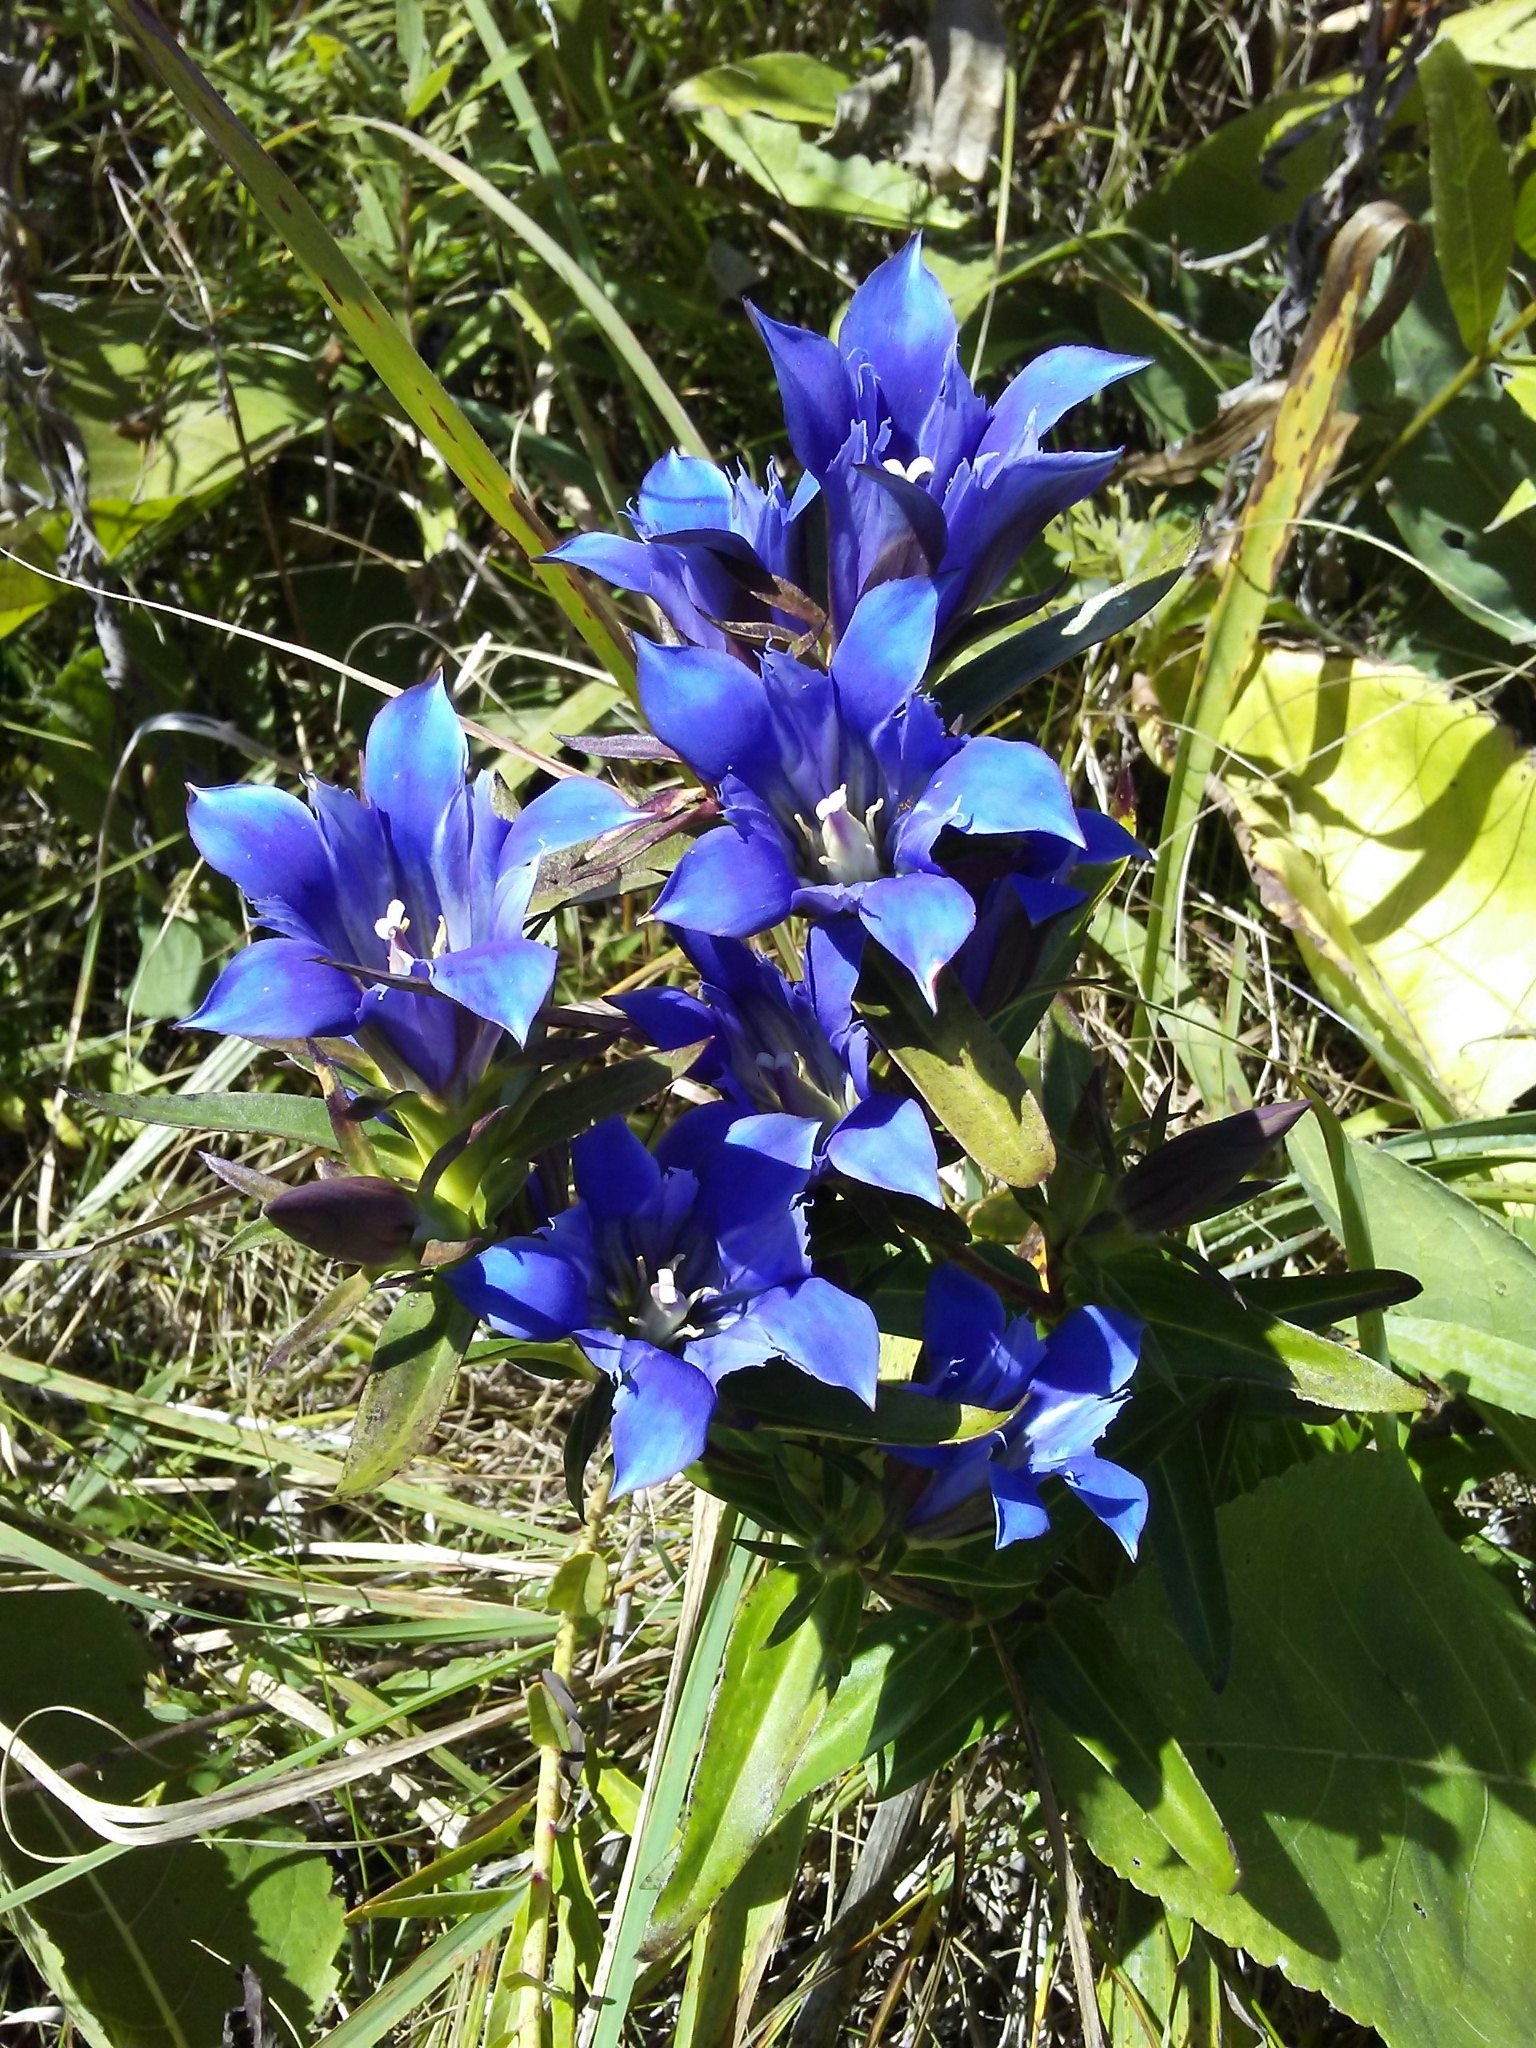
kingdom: Plantae
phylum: Tracheophyta
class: Magnoliopsida
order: Gentianales
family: Gentianaceae
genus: Gentiana
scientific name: Gentiana puberulenta
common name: Downy gentian
